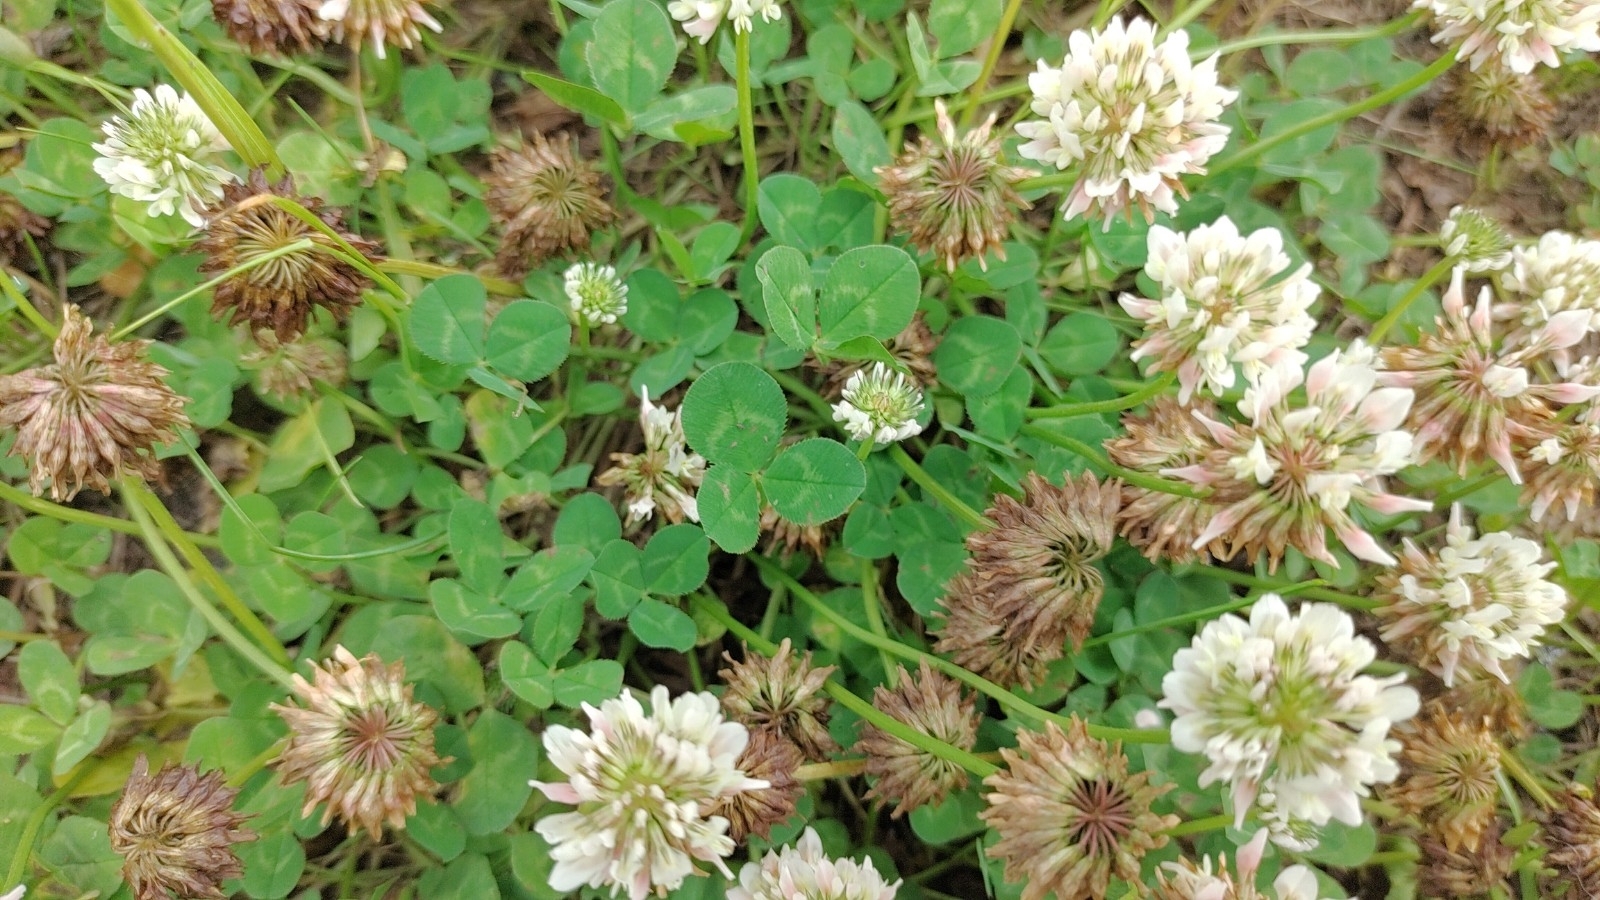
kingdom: Plantae
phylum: Tracheophyta
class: Magnoliopsida
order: Fabales
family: Fabaceae
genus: Trifolium
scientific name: Trifolium repens
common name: White clover
